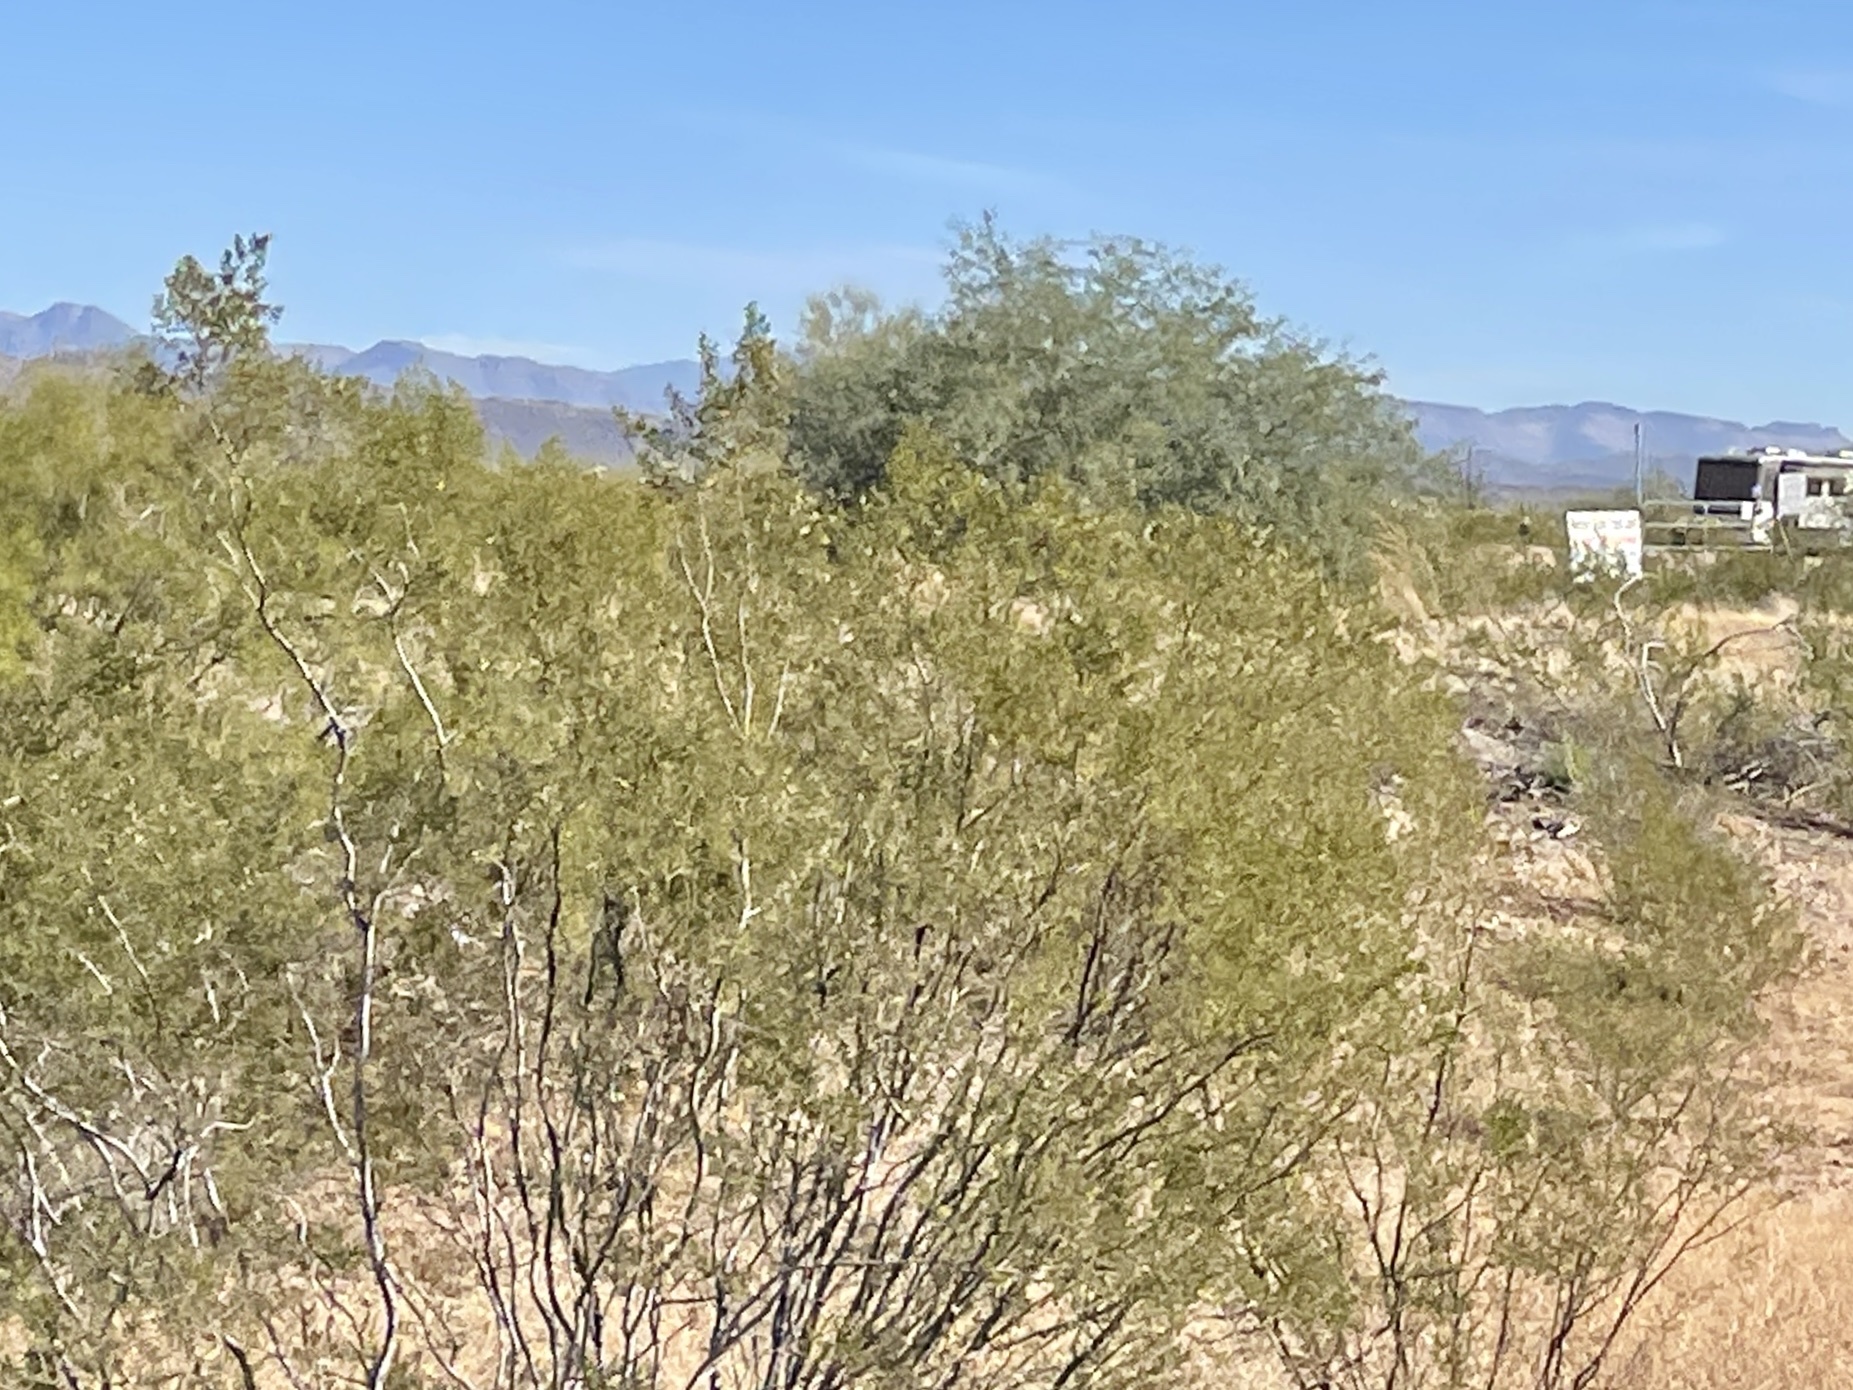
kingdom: Plantae
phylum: Tracheophyta
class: Magnoliopsida
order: Zygophyllales
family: Zygophyllaceae
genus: Larrea
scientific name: Larrea tridentata
